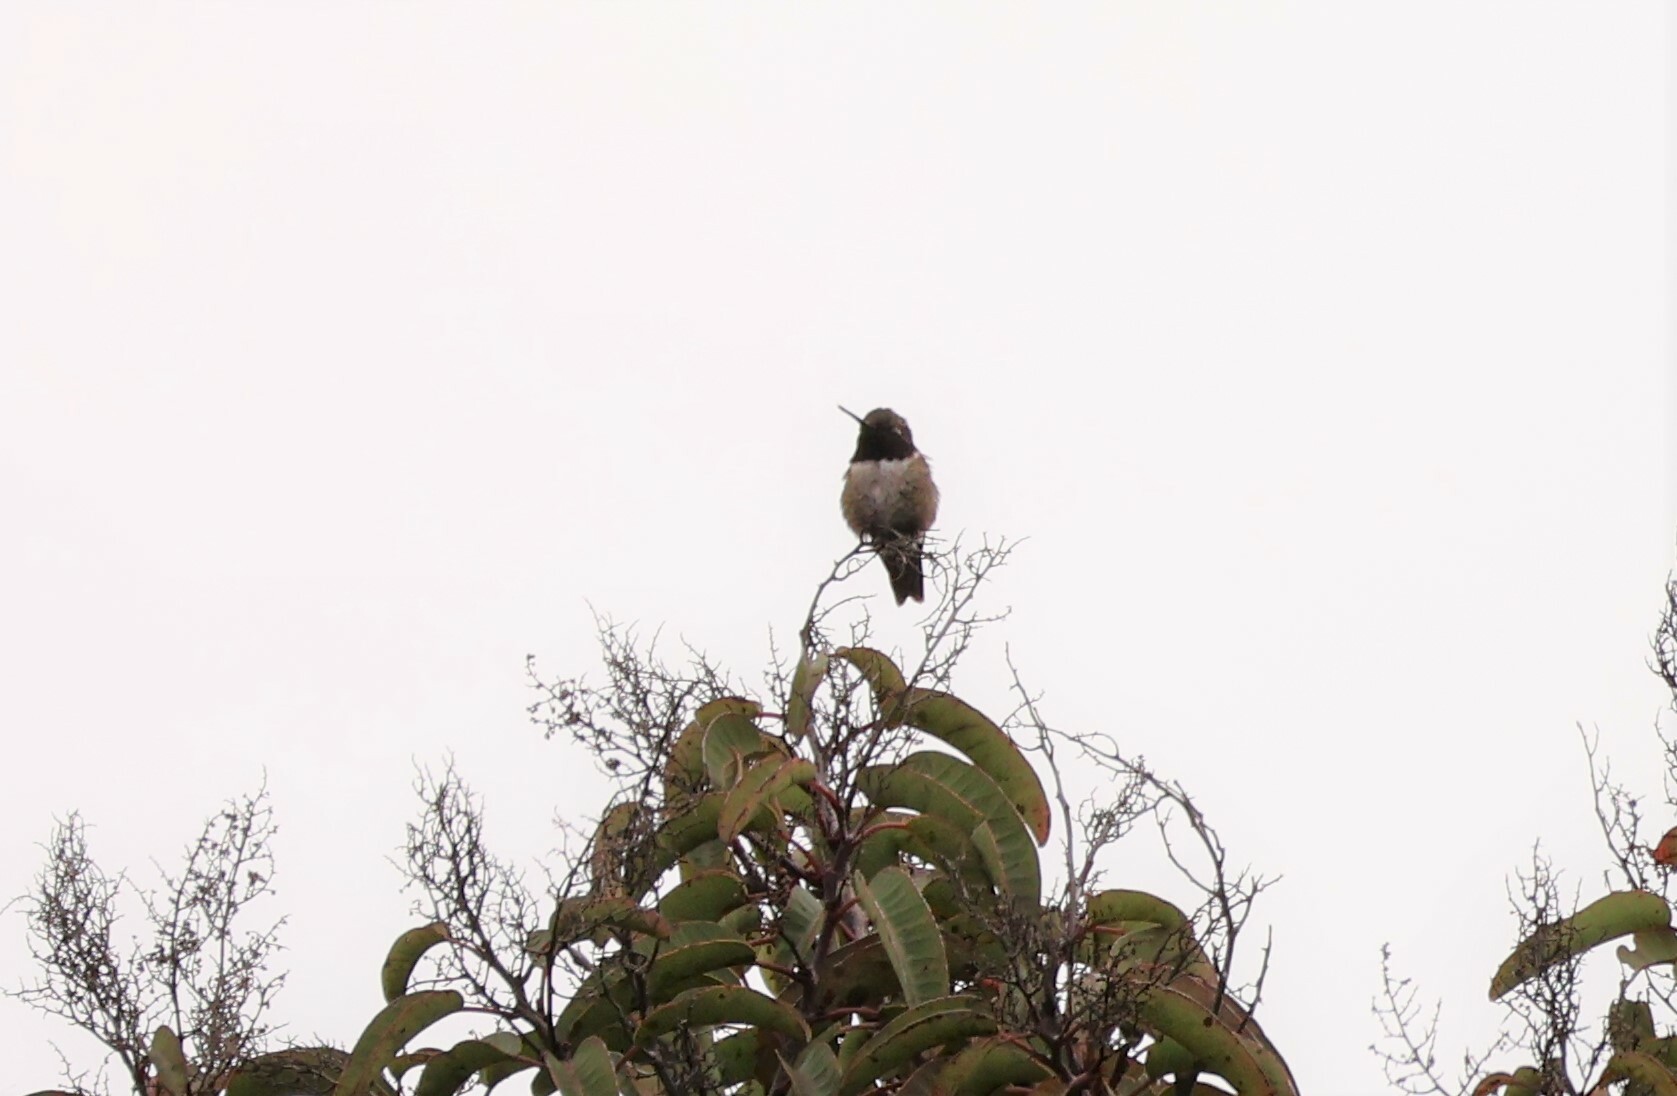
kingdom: Animalia
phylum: Chordata
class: Aves
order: Apodiformes
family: Trochilidae
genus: Archilochus
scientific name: Archilochus alexandri
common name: Black-chinned hummingbird
